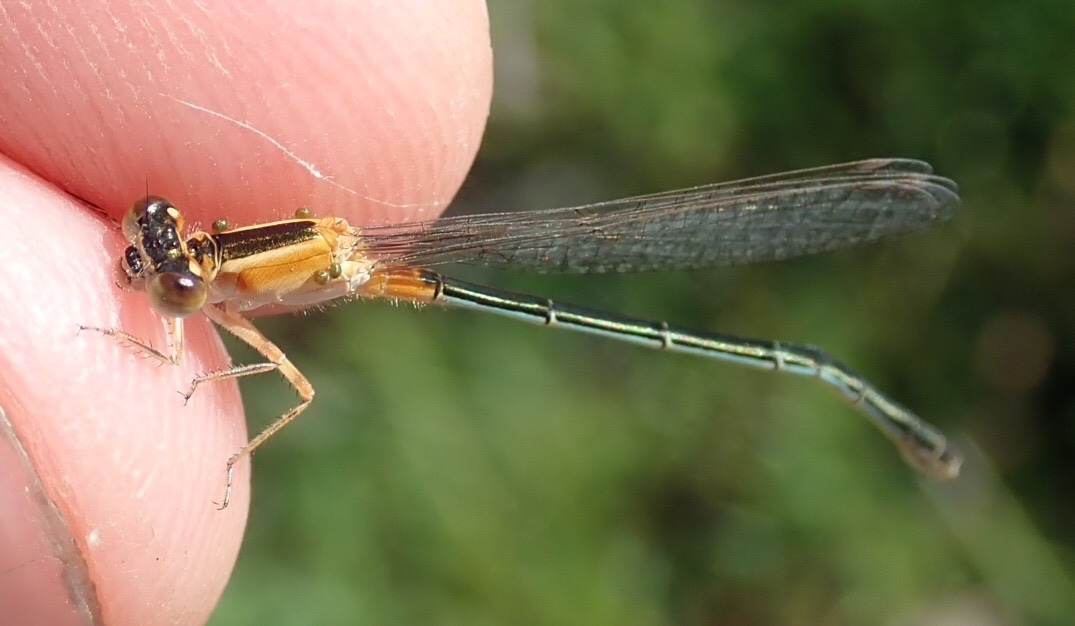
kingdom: Animalia
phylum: Arthropoda
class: Insecta
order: Odonata
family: Coenagrionidae
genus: Ischnura
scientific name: Ischnura senegalensis
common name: Tropical bluetail
